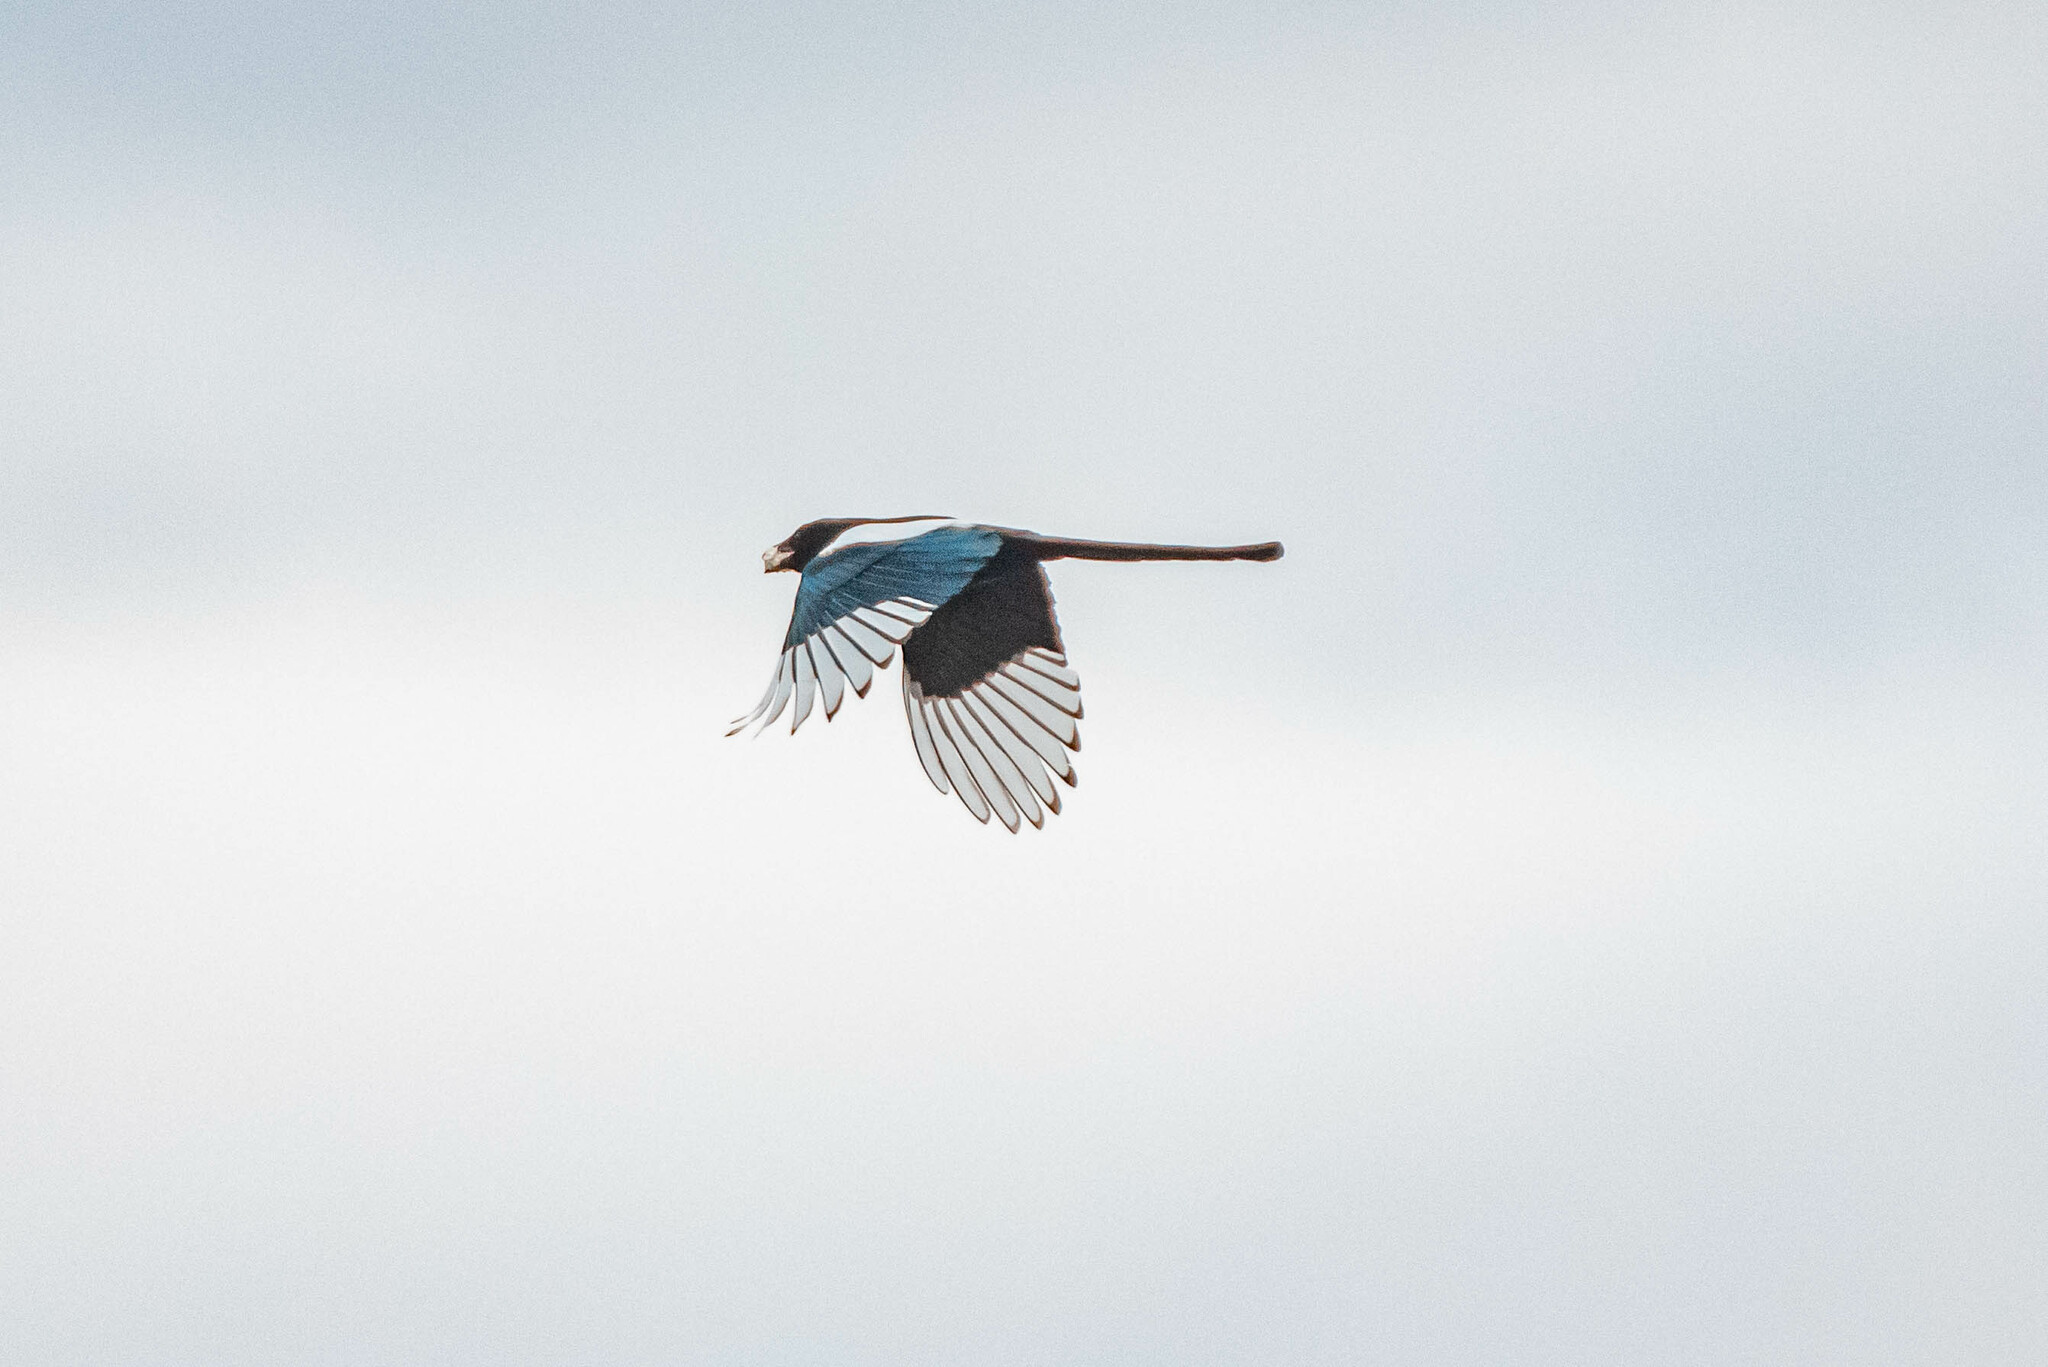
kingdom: Animalia
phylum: Chordata
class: Aves
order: Passeriformes
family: Corvidae
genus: Pica
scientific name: Pica pica
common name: Eurasian magpie
